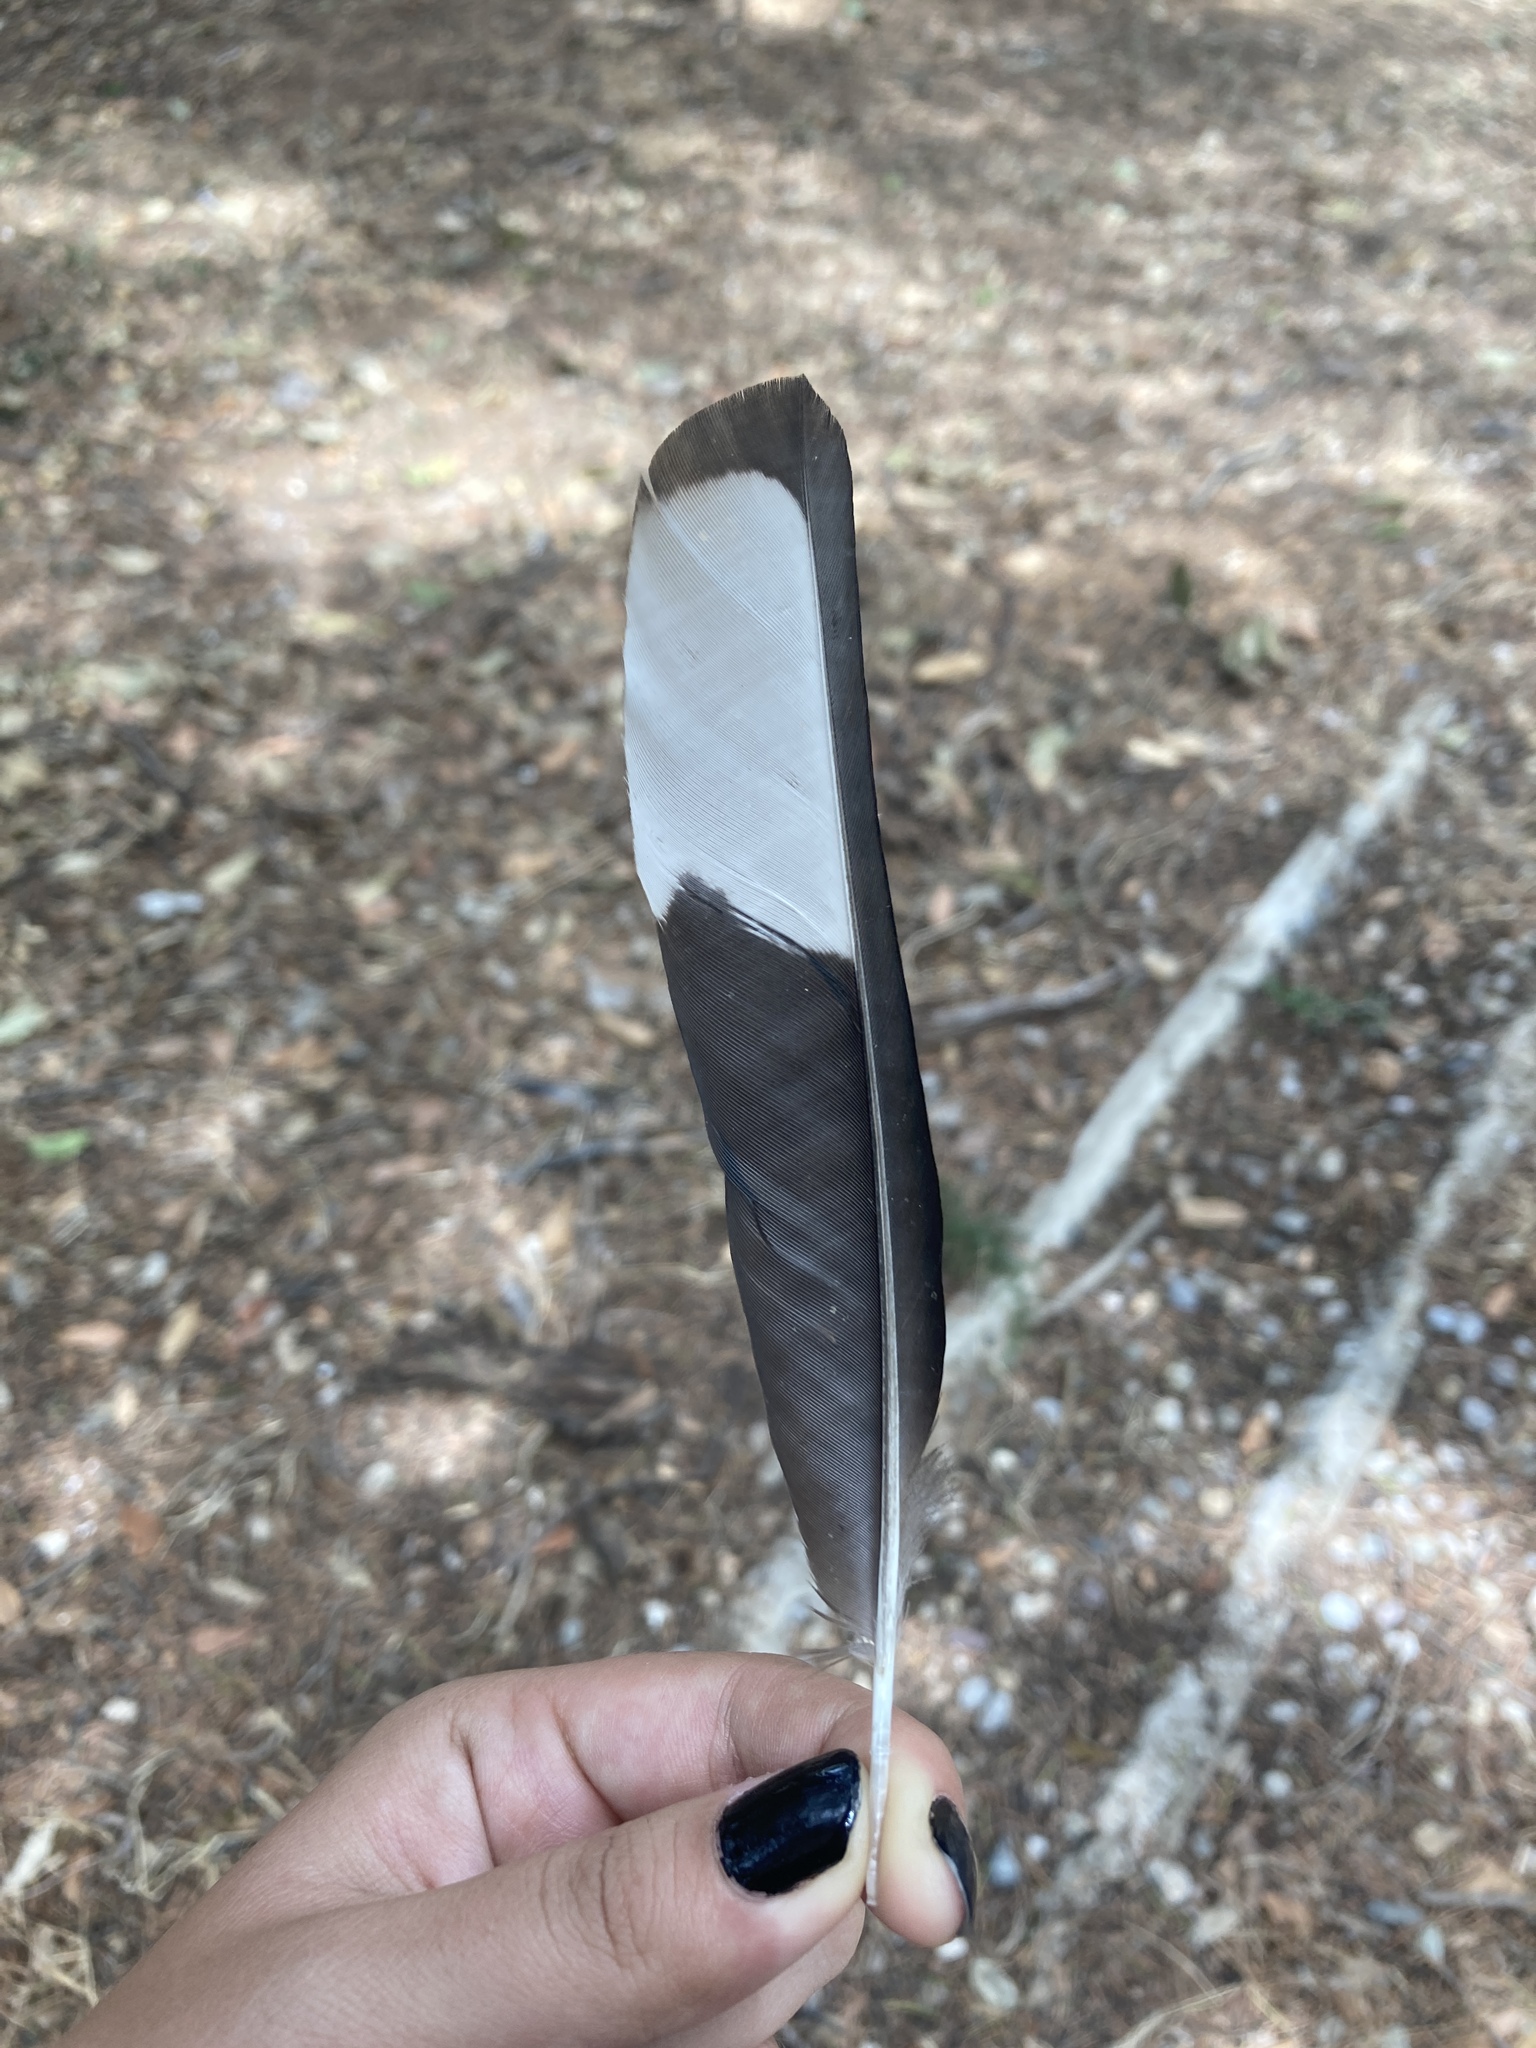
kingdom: Animalia
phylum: Chordata
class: Aves
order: Passeriformes
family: Corvidae
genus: Pica
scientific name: Pica pica
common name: Eurasian magpie
